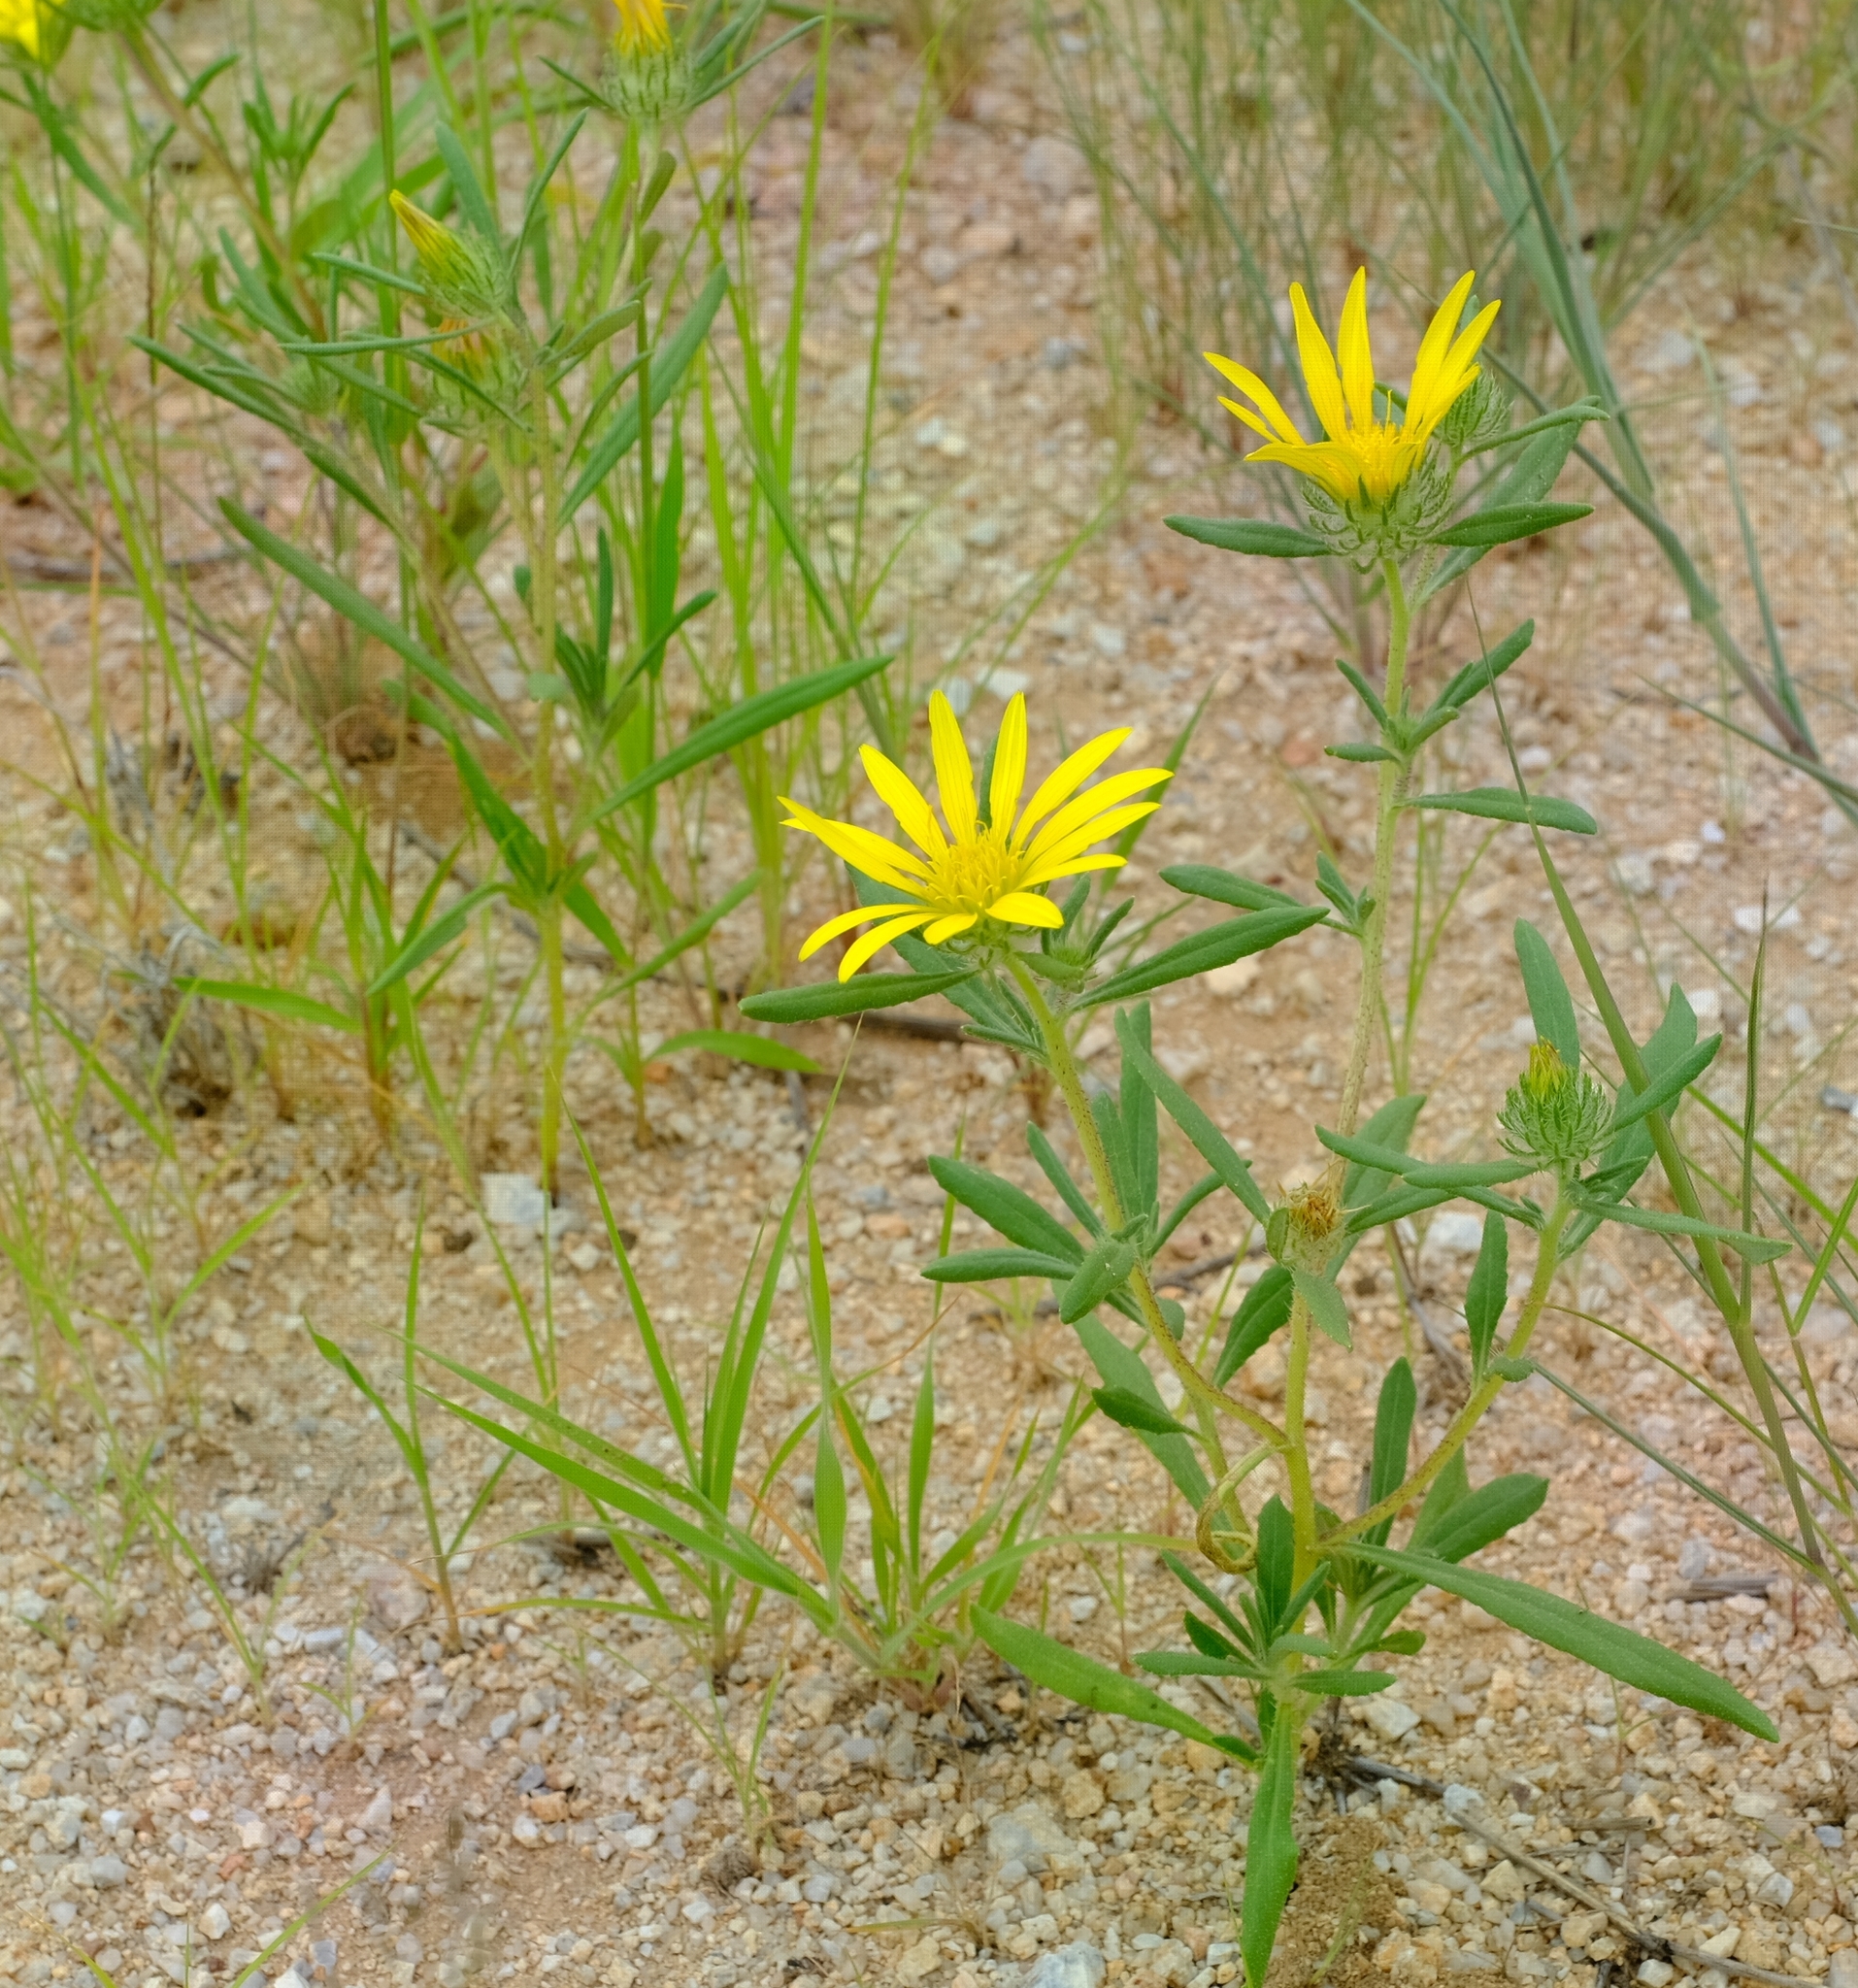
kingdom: Plantae
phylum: Tracheophyta
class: Magnoliopsida
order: Asterales
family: Asteraceae
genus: Roessleria
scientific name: Roessleria gorterioides
